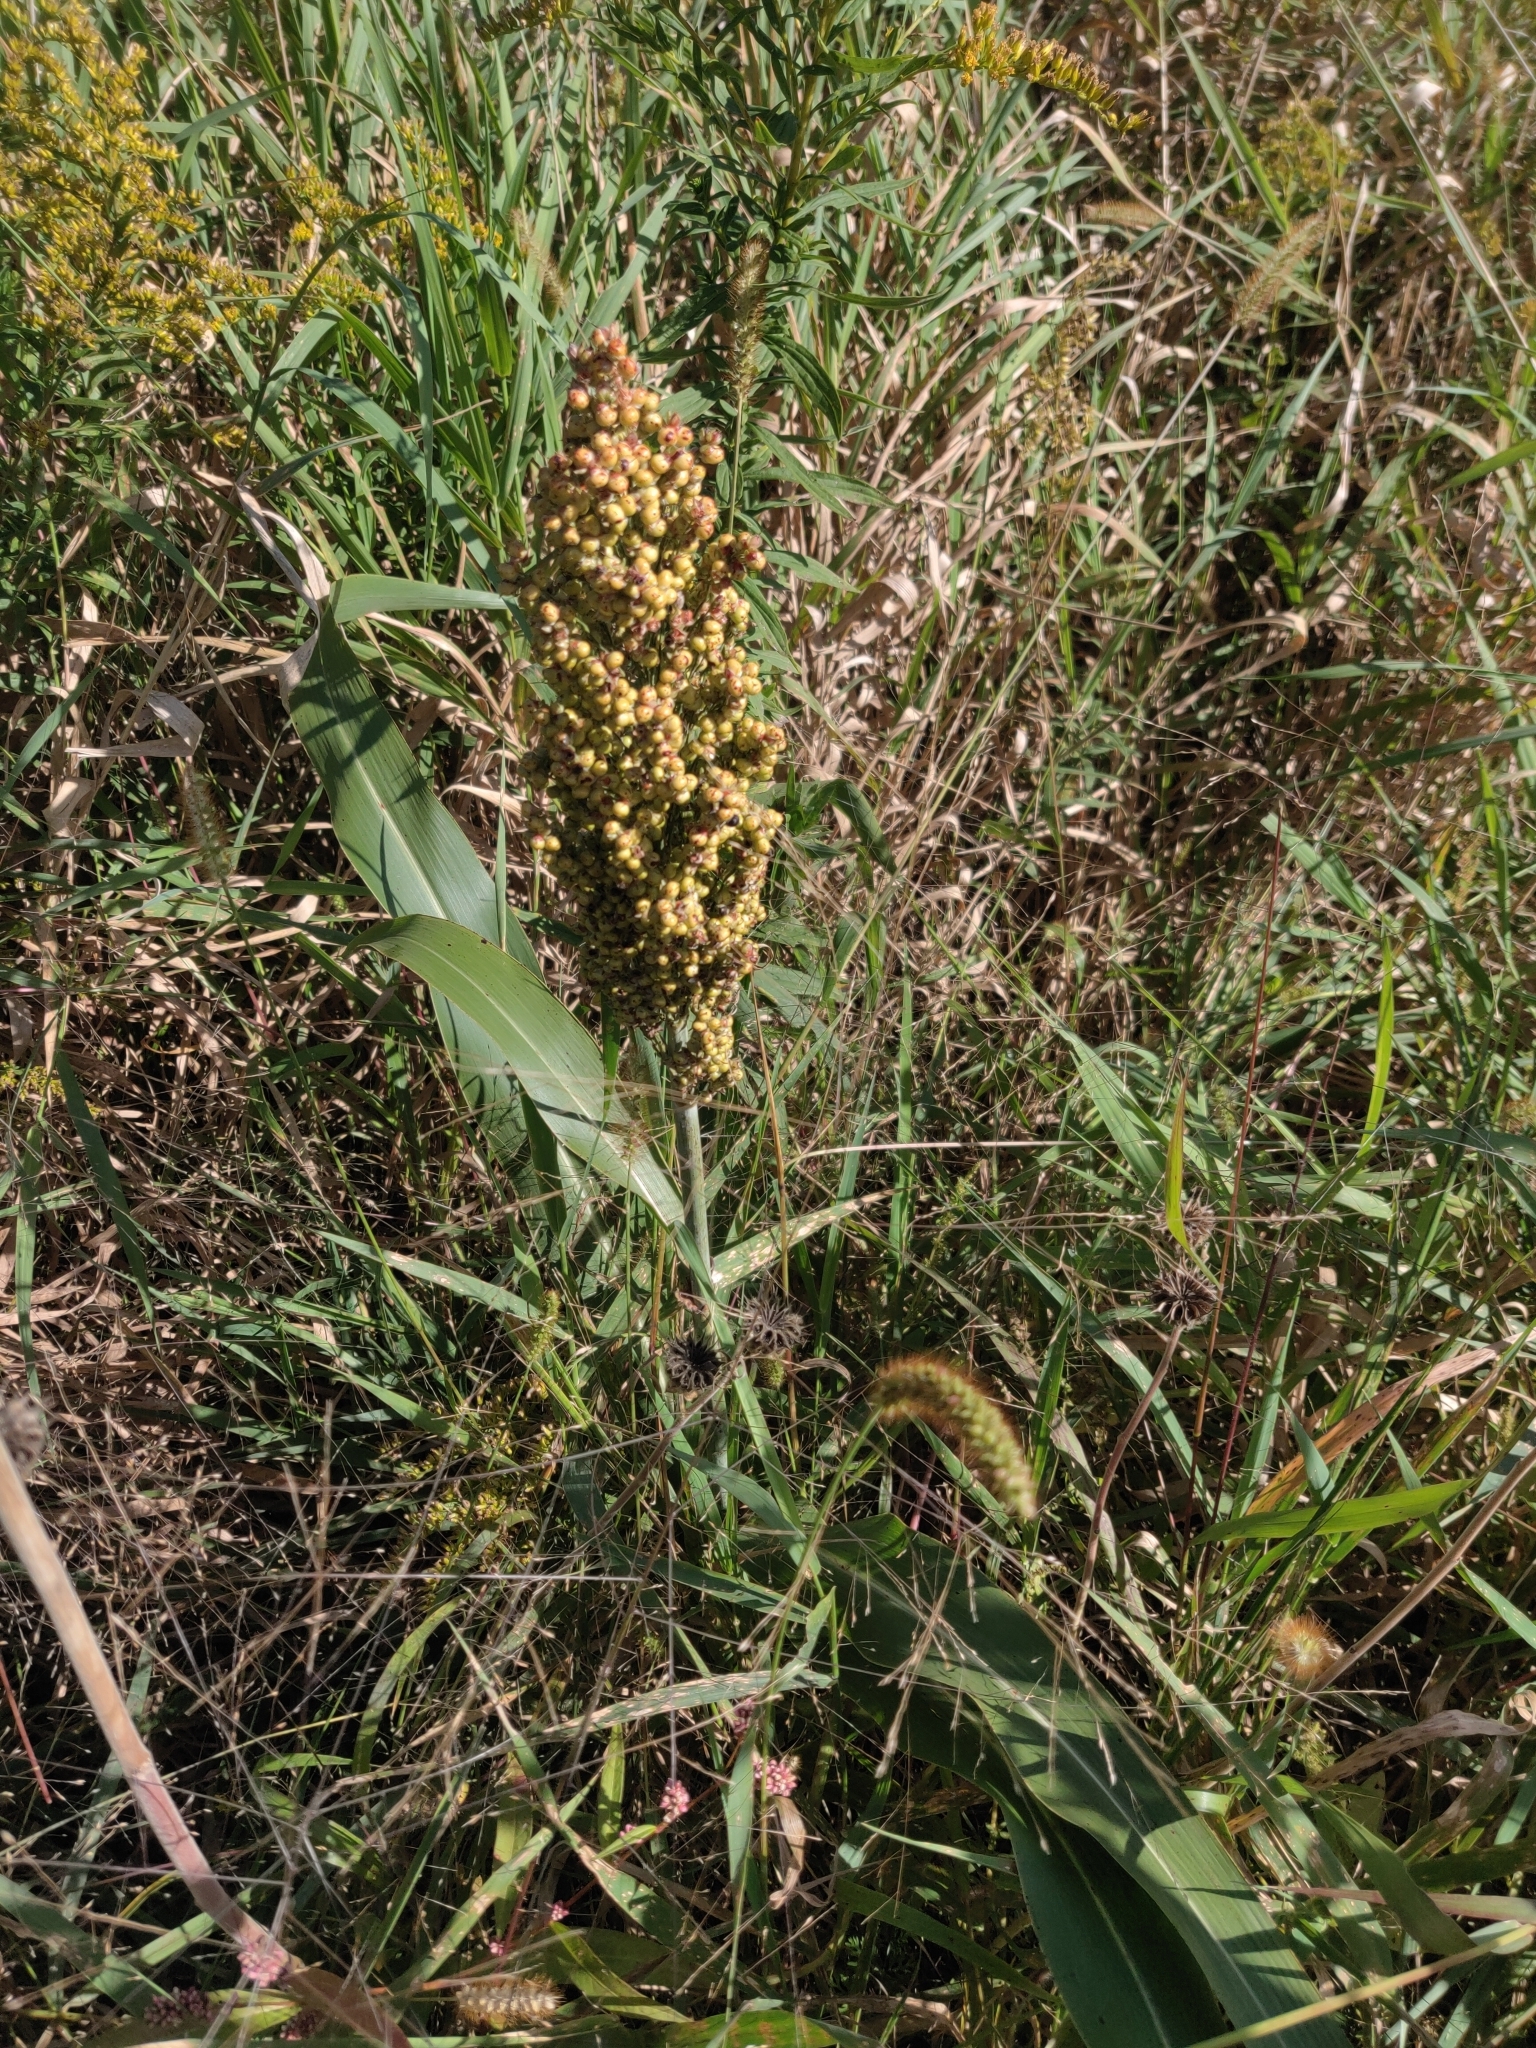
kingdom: Plantae
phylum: Tracheophyta
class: Liliopsida
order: Poales
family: Poaceae
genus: Sorghum
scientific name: Sorghum bicolor
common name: Sorghum
